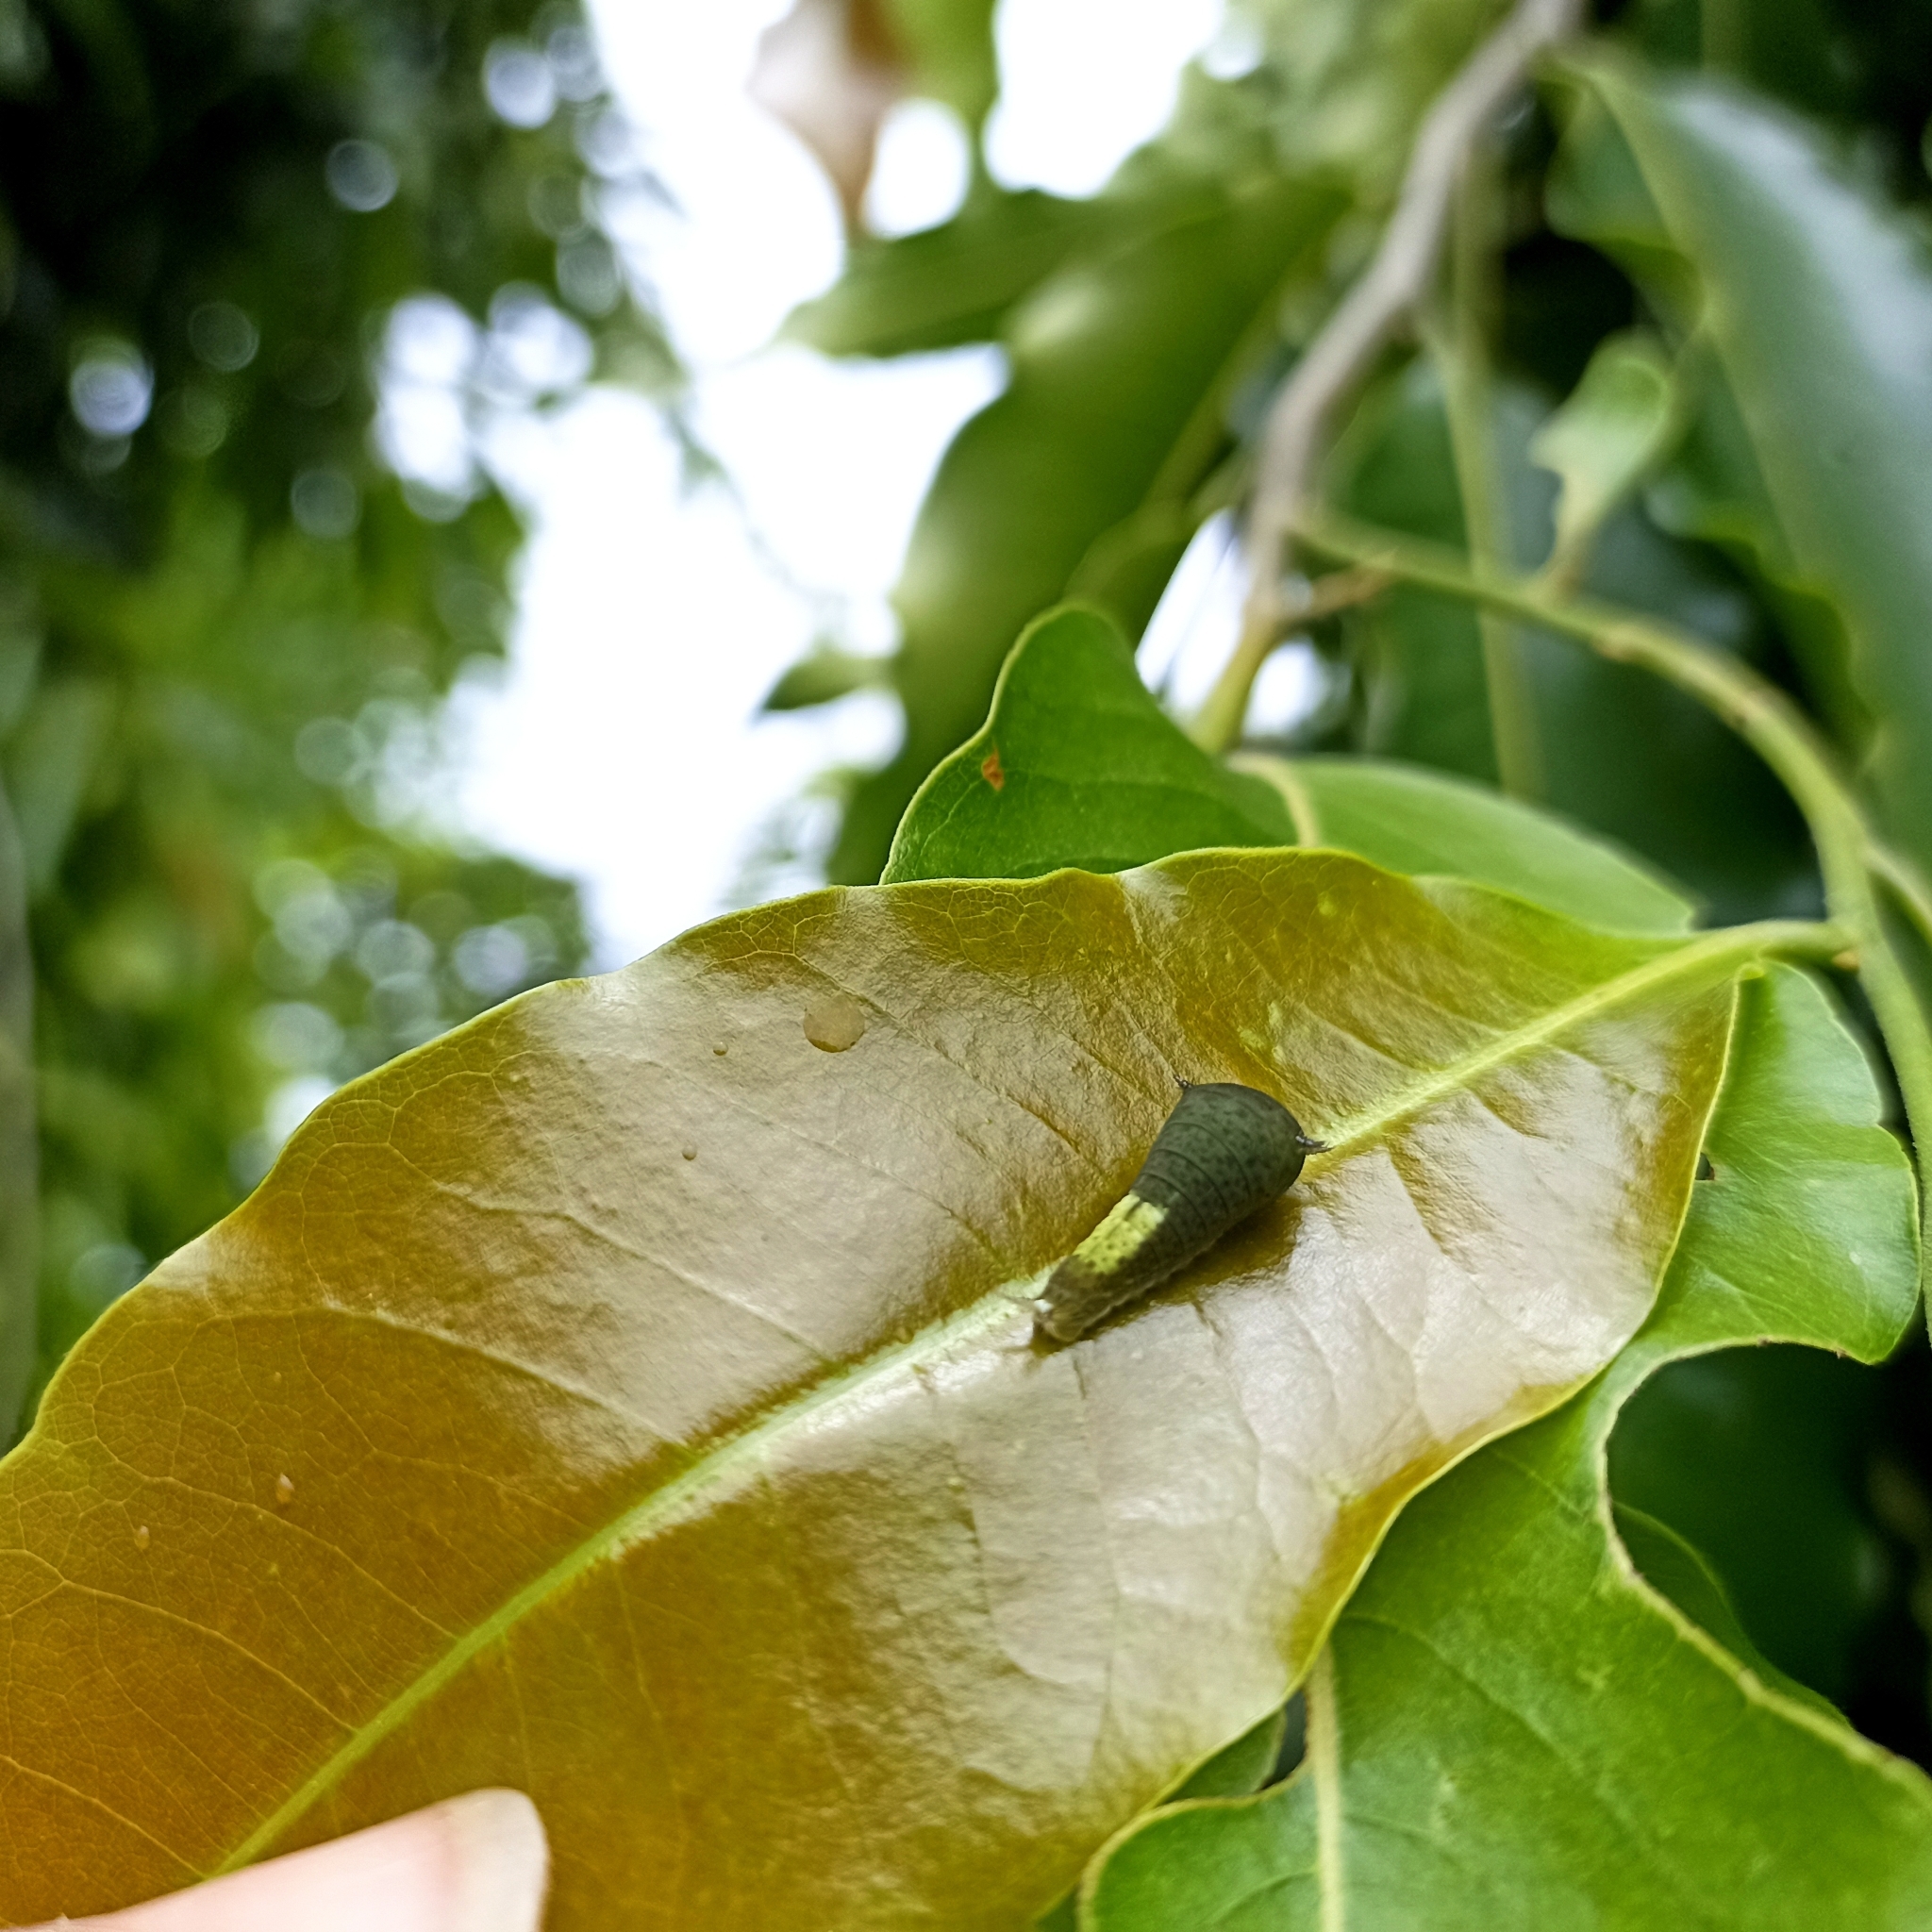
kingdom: Animalia
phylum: Arthropoda
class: Insecta
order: Lepidoptera
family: Papilionidae
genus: Graphium
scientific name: Graphium agamemnon
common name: Tailed jay
